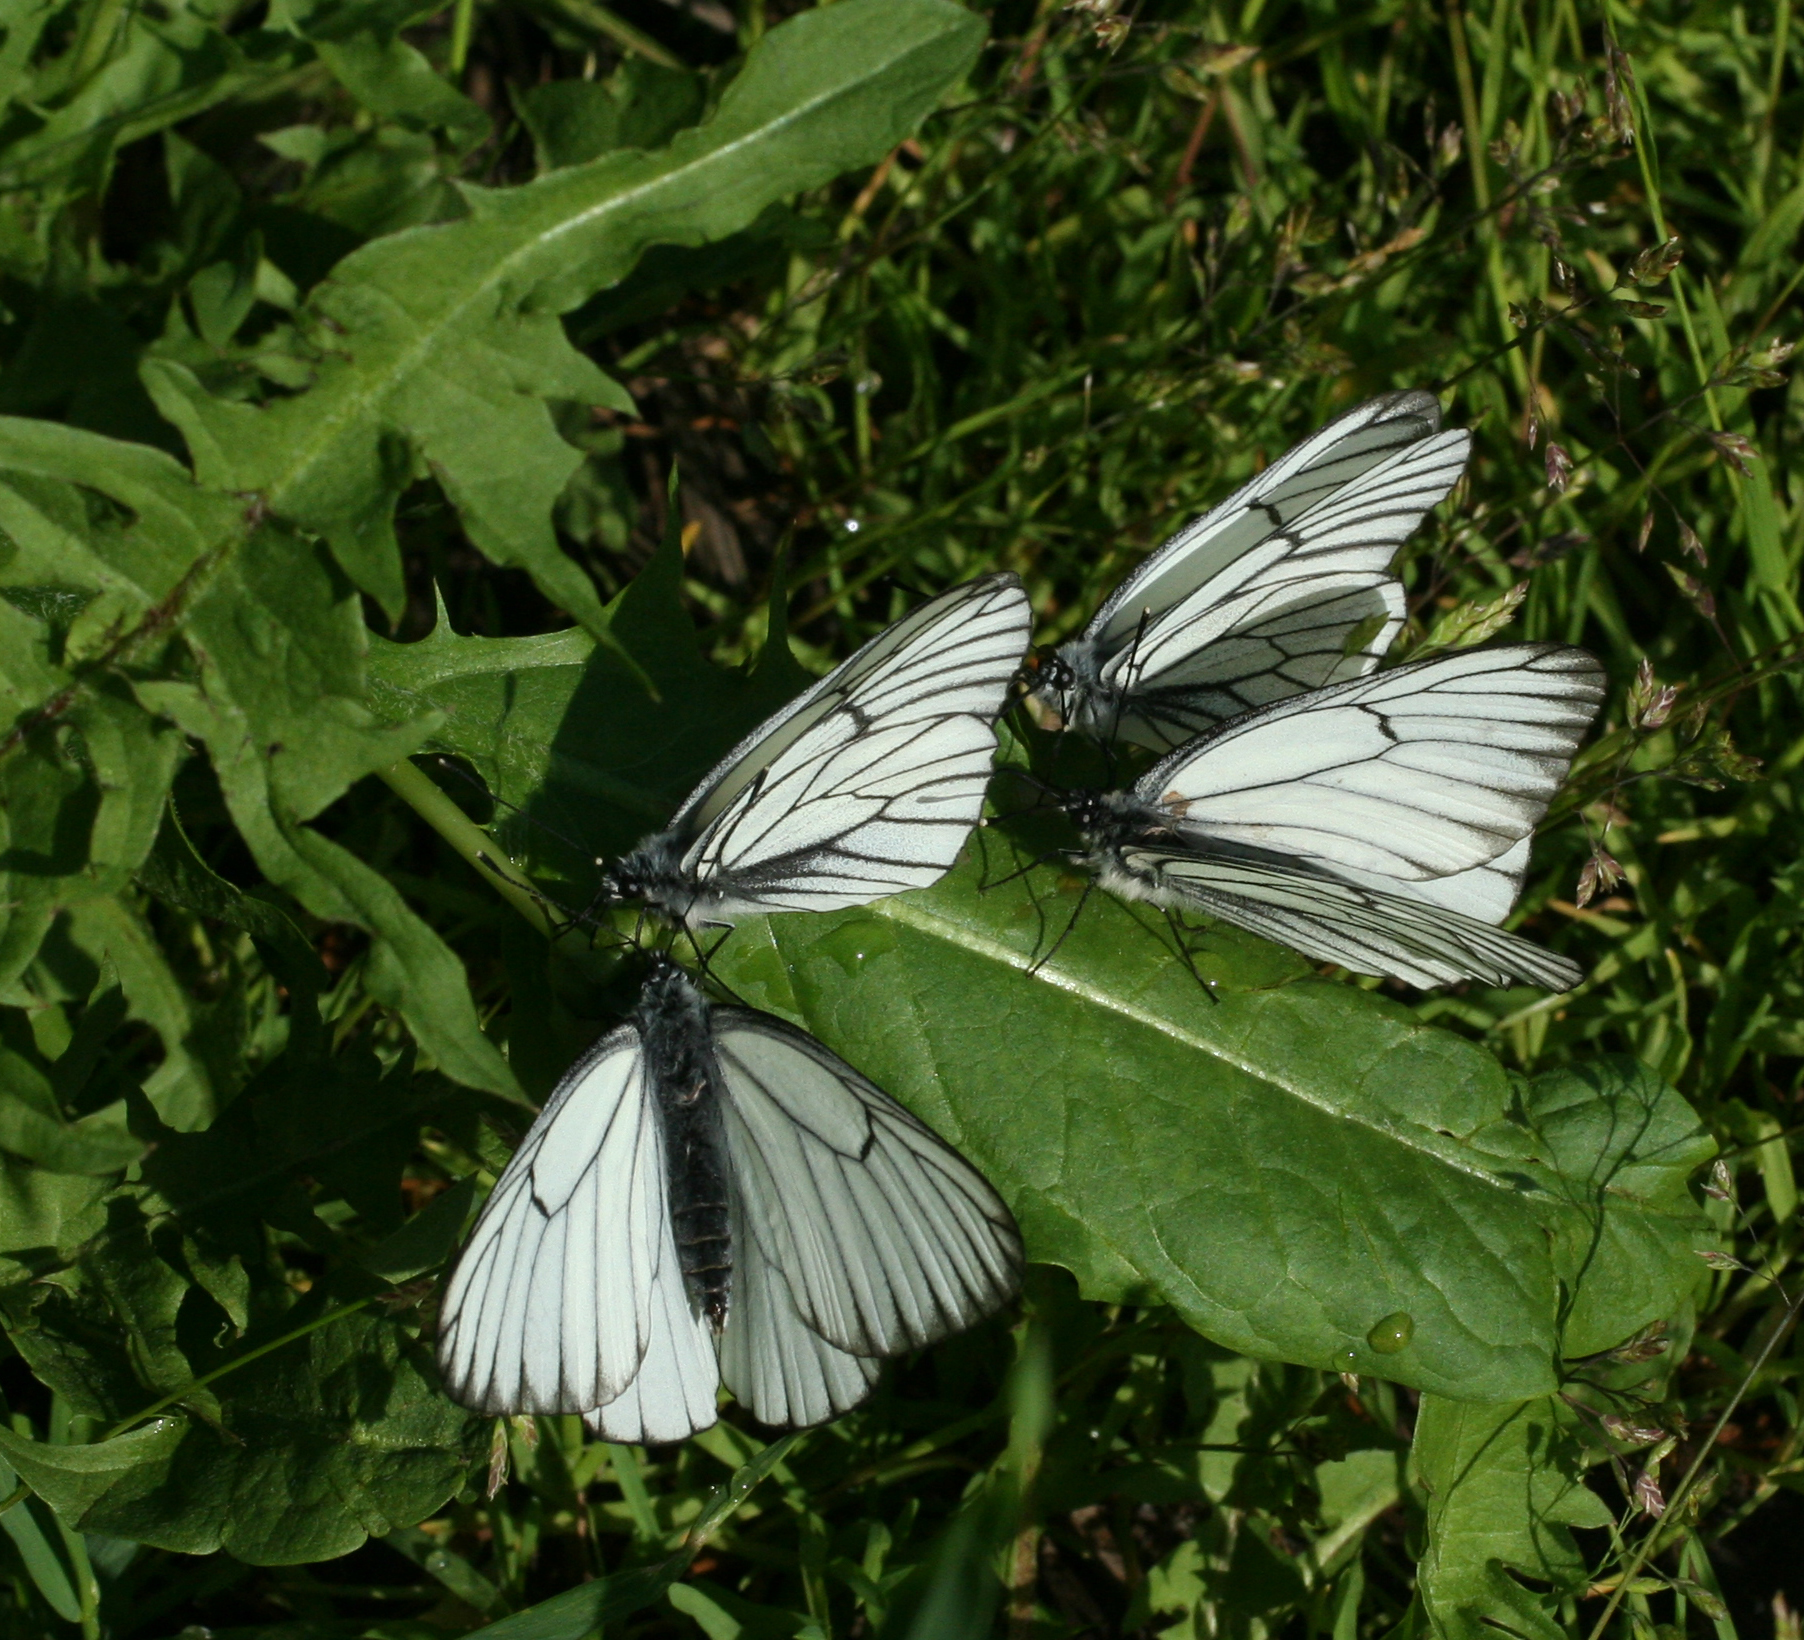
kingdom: Animalia
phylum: Arthropoda
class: Insecta
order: Lepidoptera
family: Pieridae
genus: Aporia
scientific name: Aporia crataegi
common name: Black-veined white
